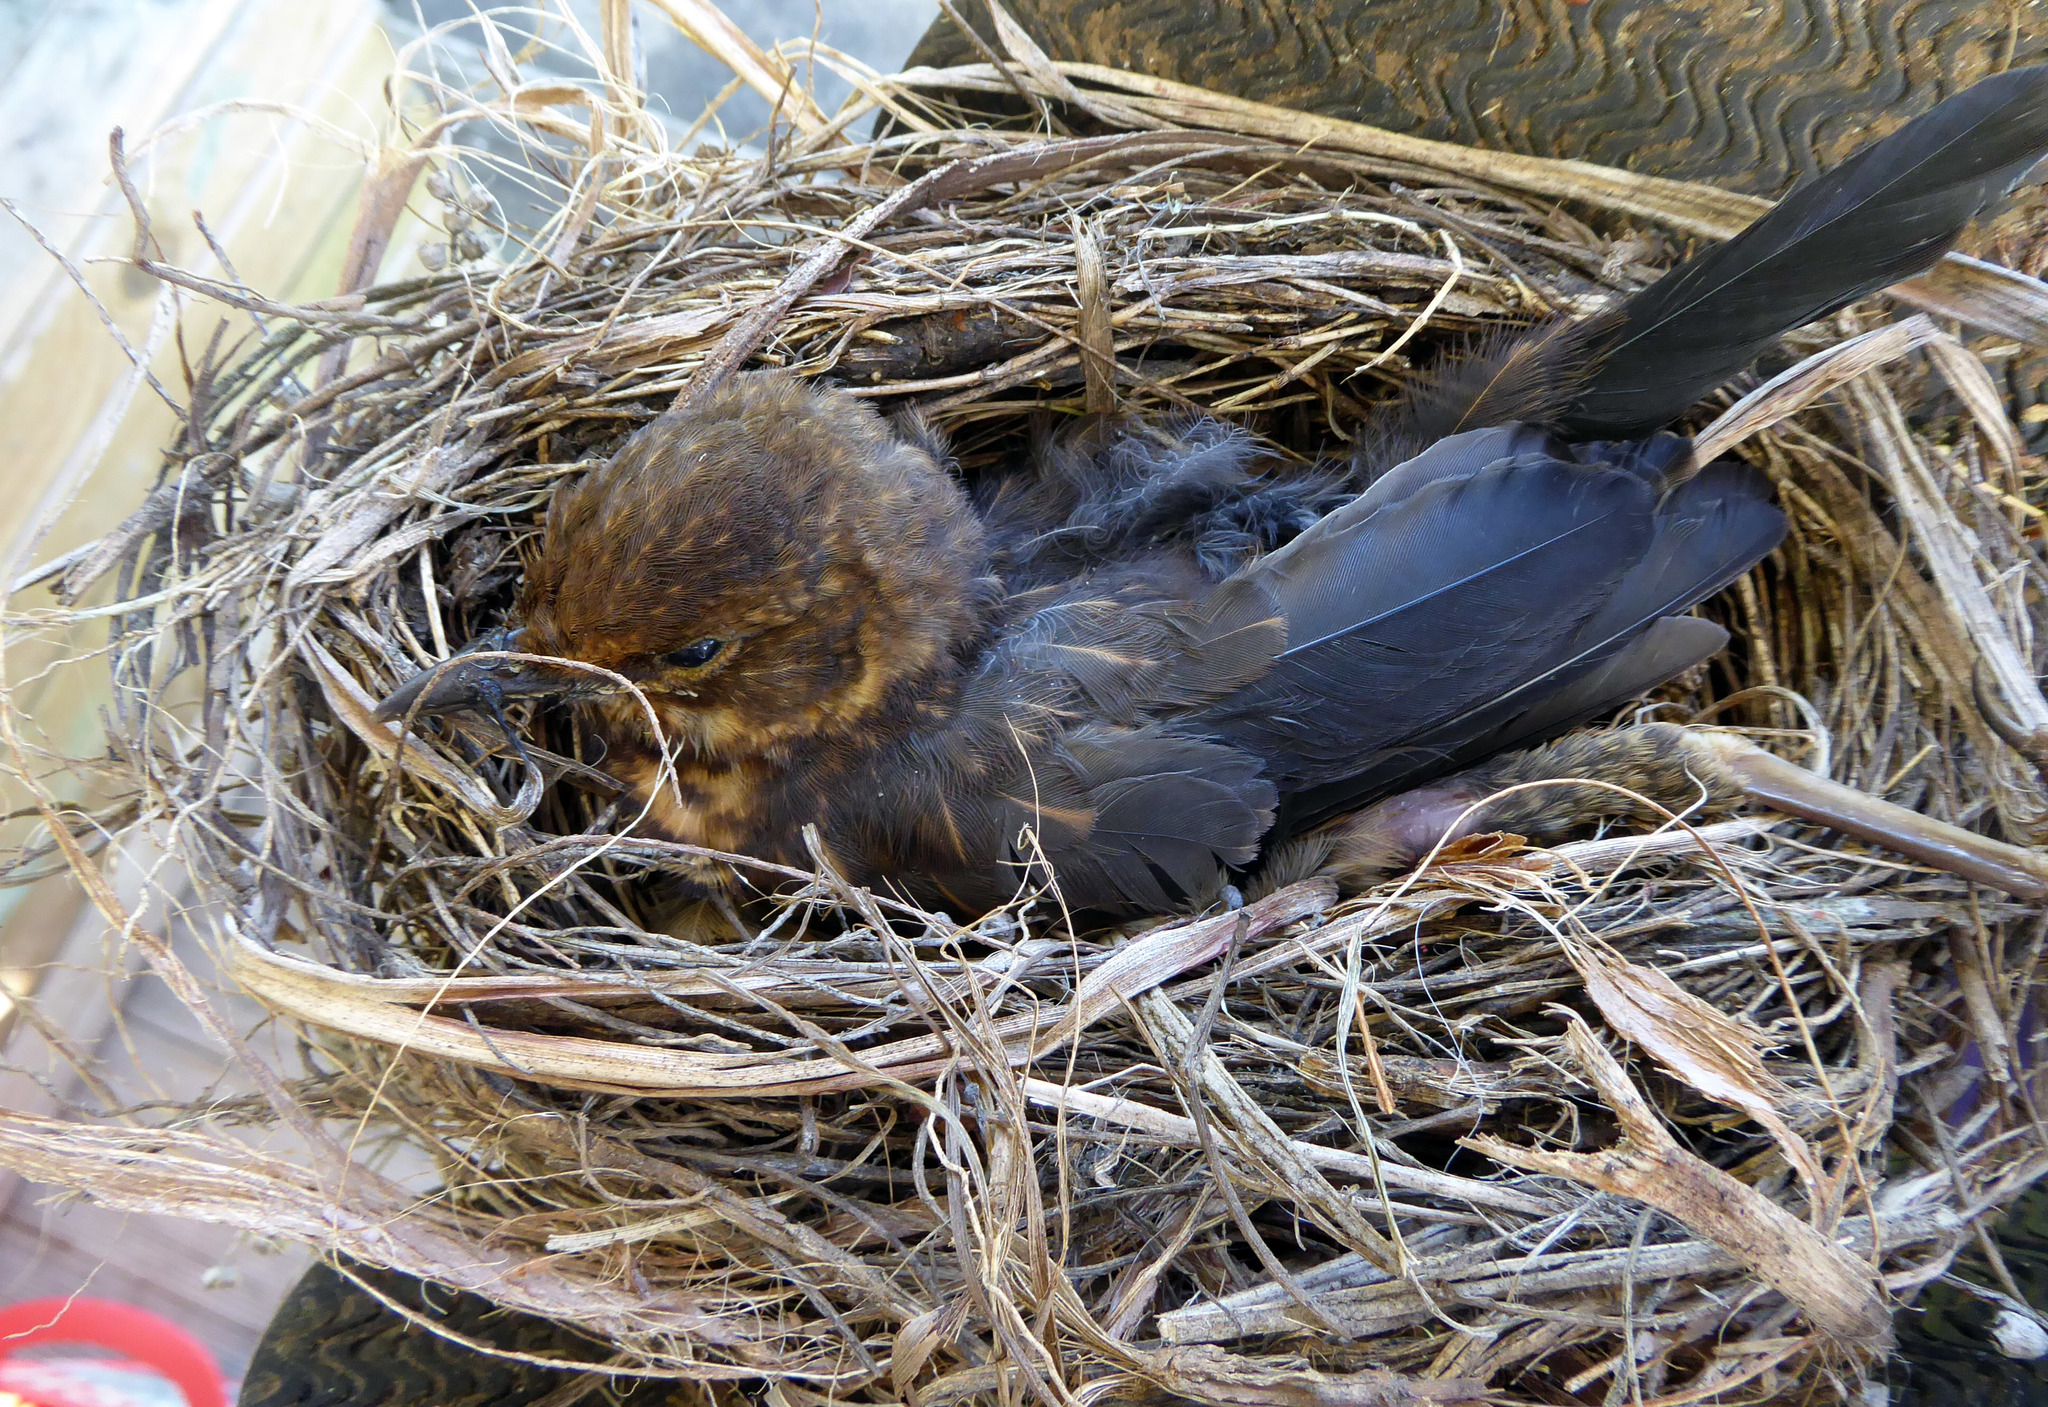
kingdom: Animalia
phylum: Chordata
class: Aves
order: Passeriformes
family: Turdidae
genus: Turdus
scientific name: Turdus merula
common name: Common blackbird
